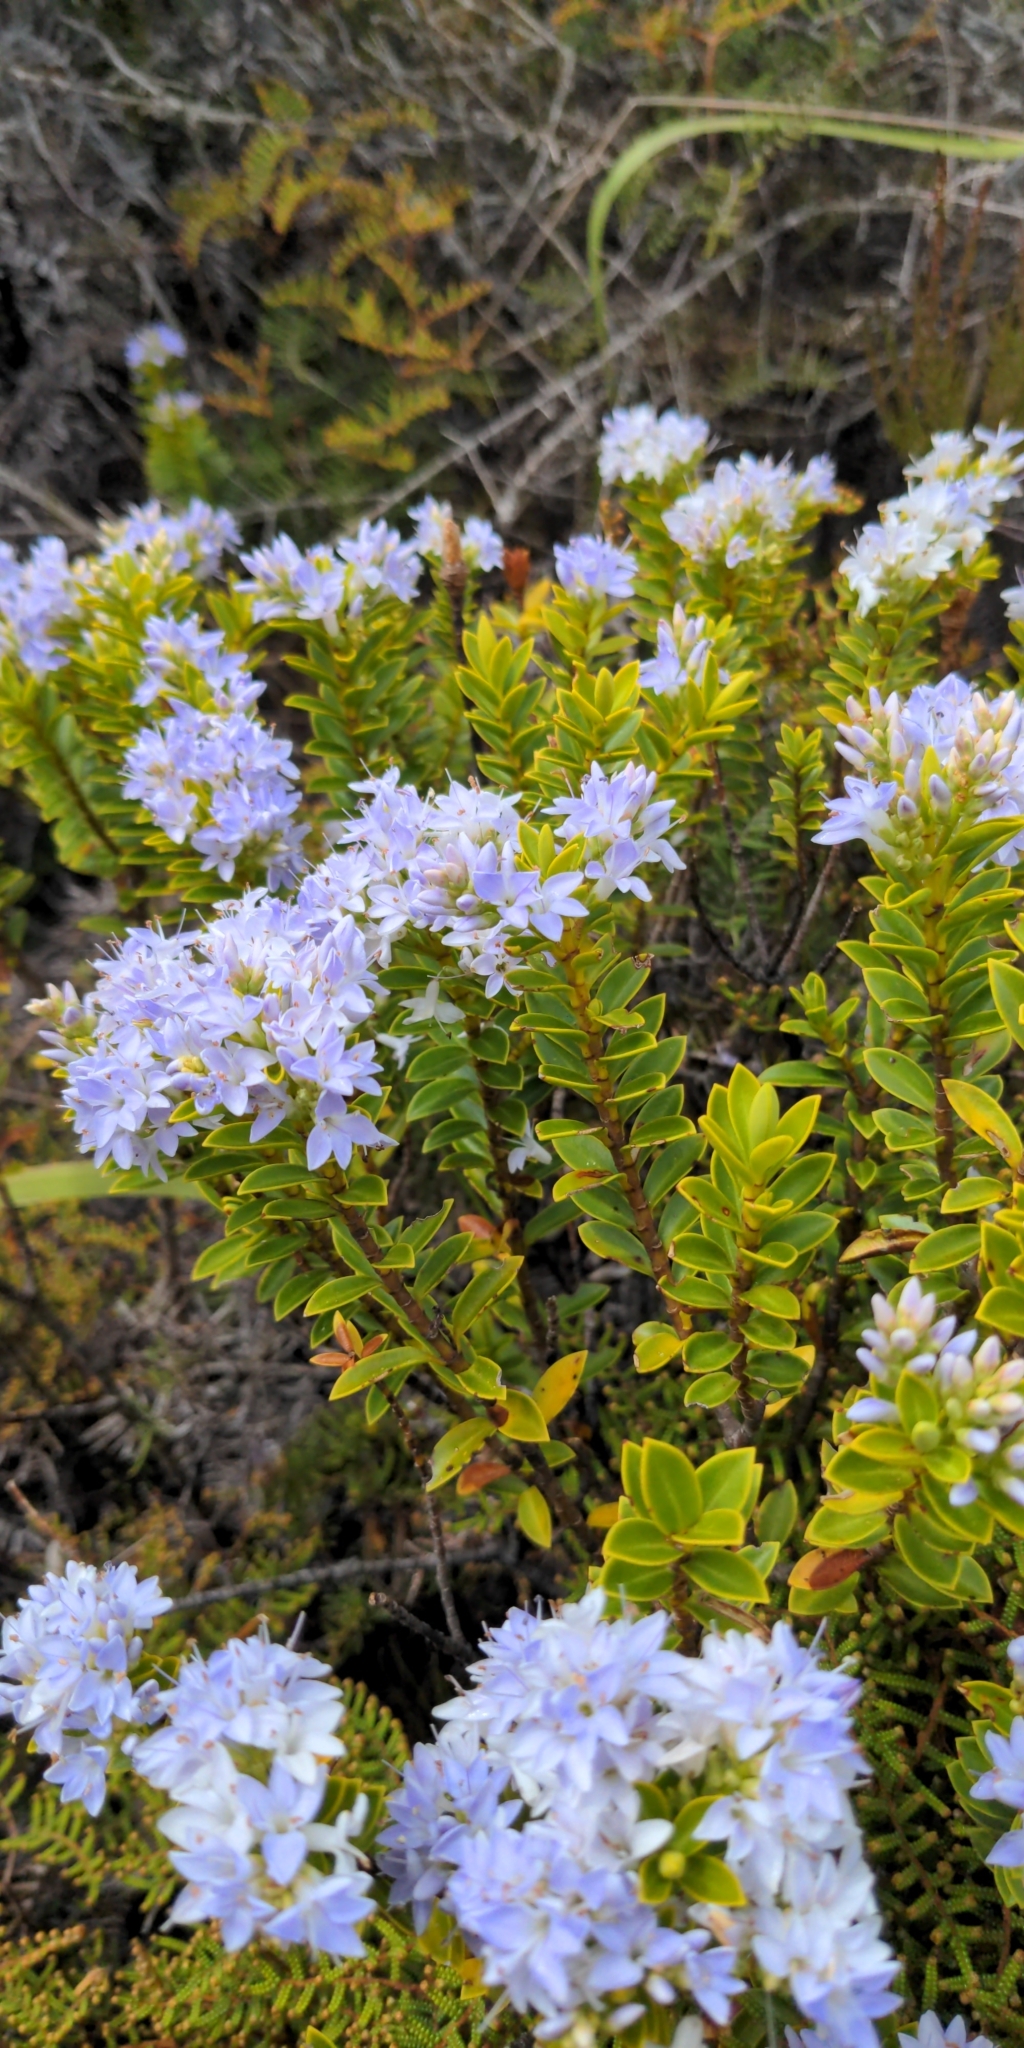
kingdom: Plantae
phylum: Tracheophyta
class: Magnoliopsida
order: Lamiales
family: Plantaginaceae
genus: Veronica
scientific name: Veronica venustula
